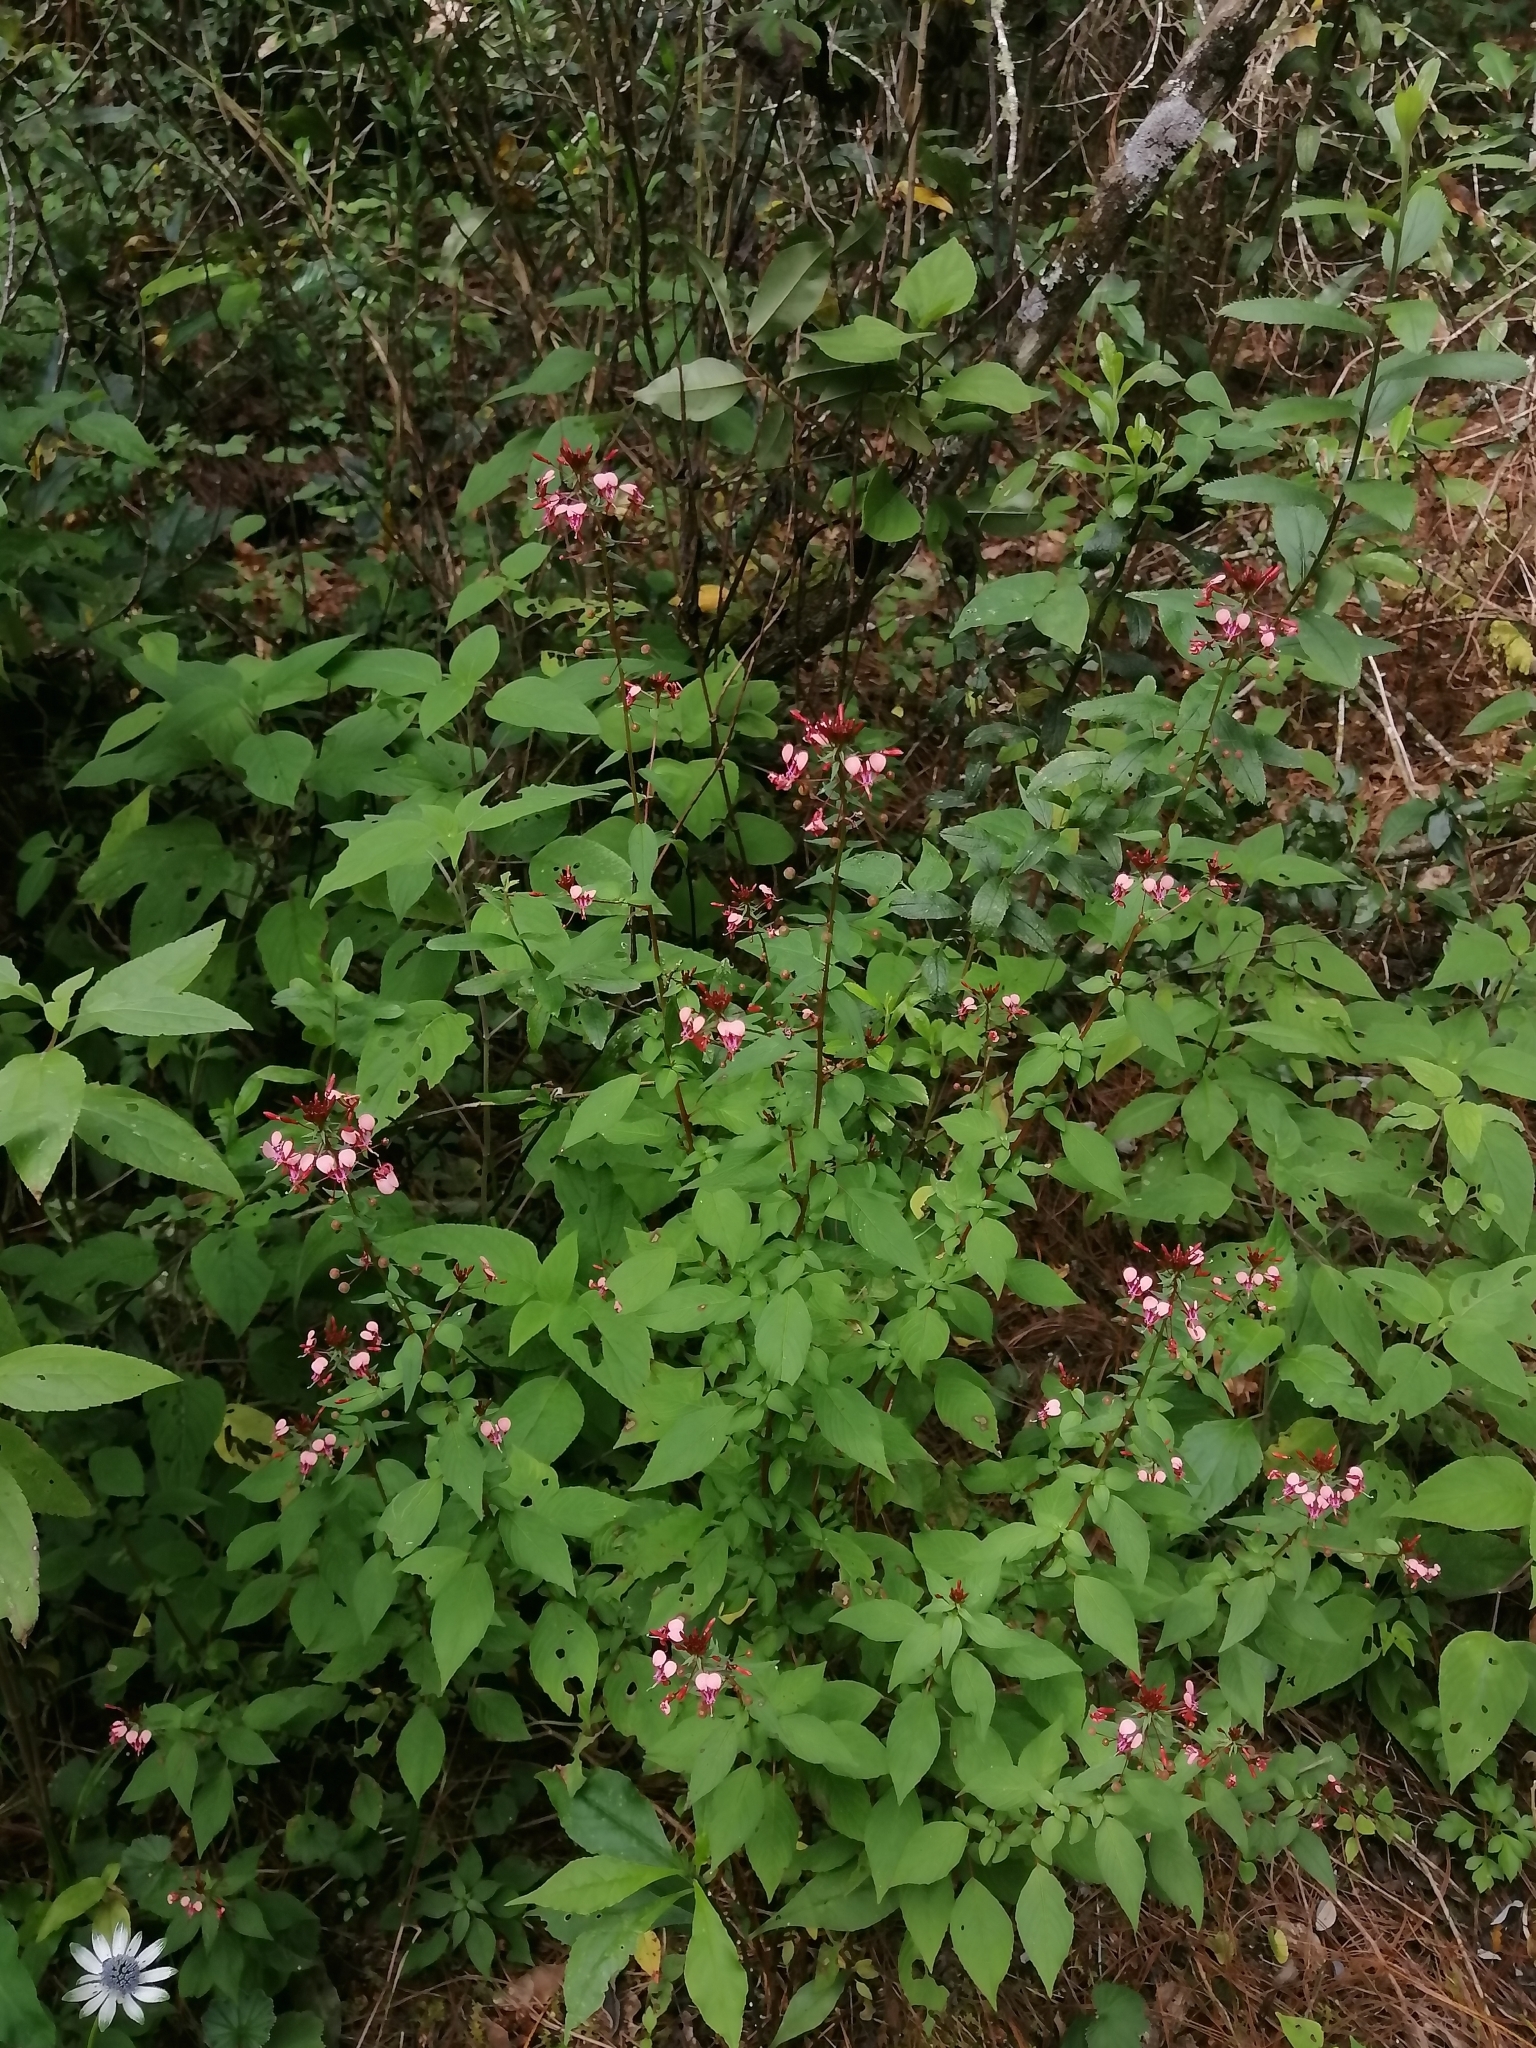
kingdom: Plantae
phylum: Tracheophyta
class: Magnoliopsida
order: Myrtales
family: Onagraceae
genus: Lopezia
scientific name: Lopezia racemosa
